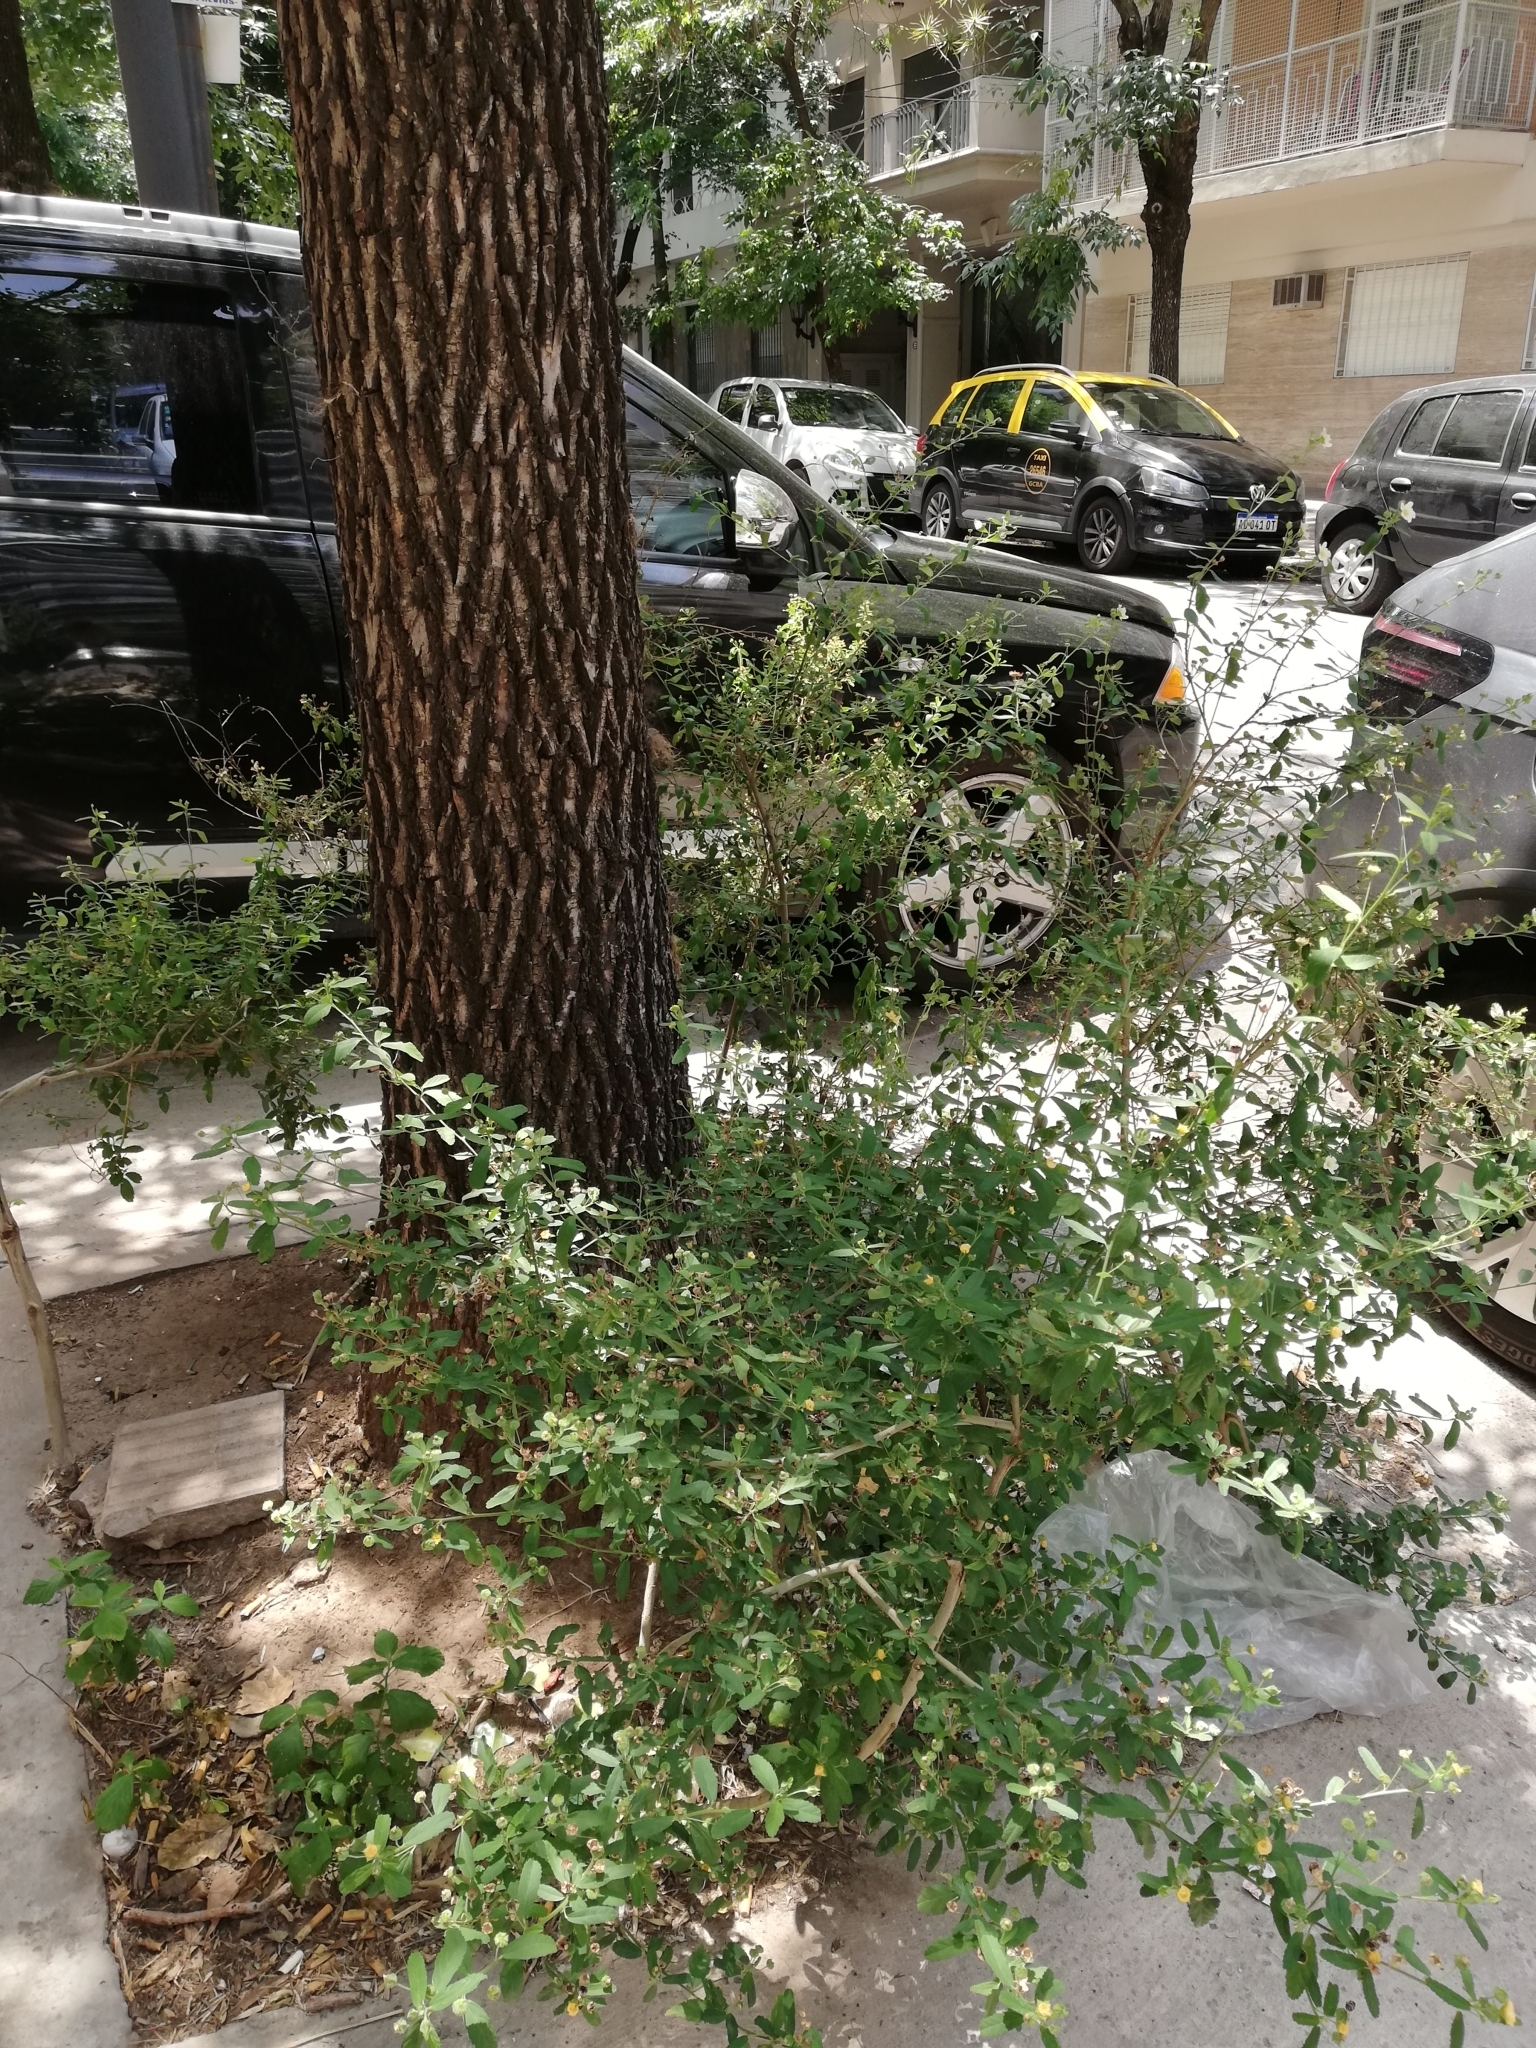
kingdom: Plantae
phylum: Tracheophyta
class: Magnoliopsida
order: Malvales
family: Malvaceae
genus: Sida
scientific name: Sida rhombifolia
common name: Queensland-hemp
